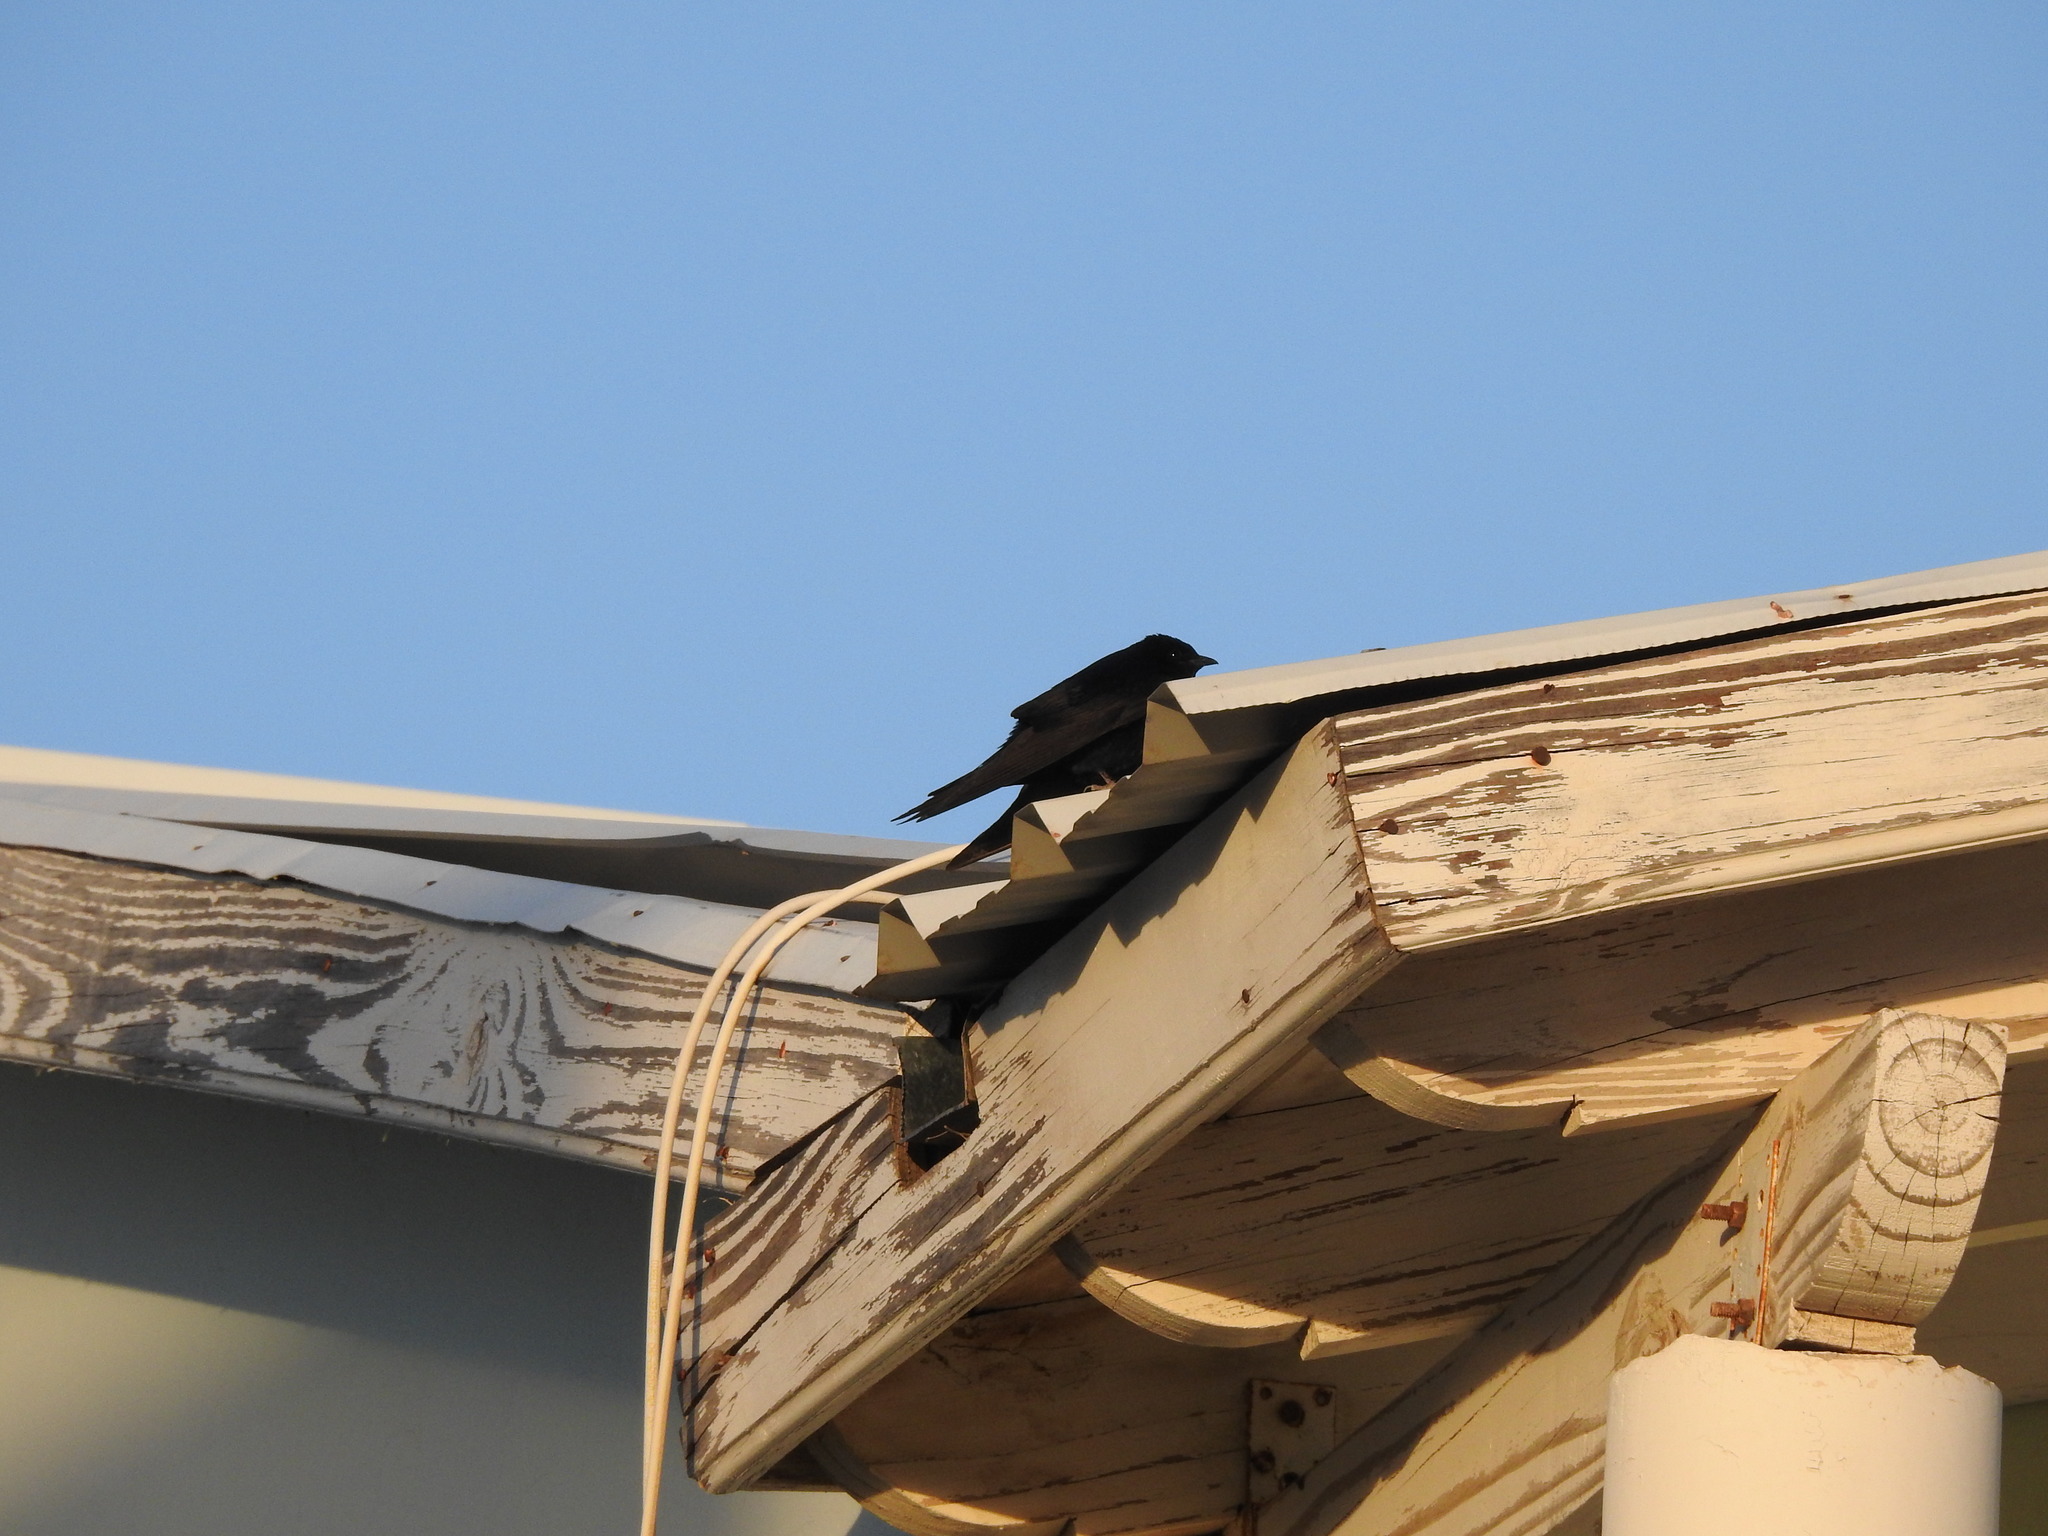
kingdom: Animalia
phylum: Chordata
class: Aves
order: Passeriformes
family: Hirundinidae
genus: Progne
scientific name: Progne elegans
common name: Southern martin
